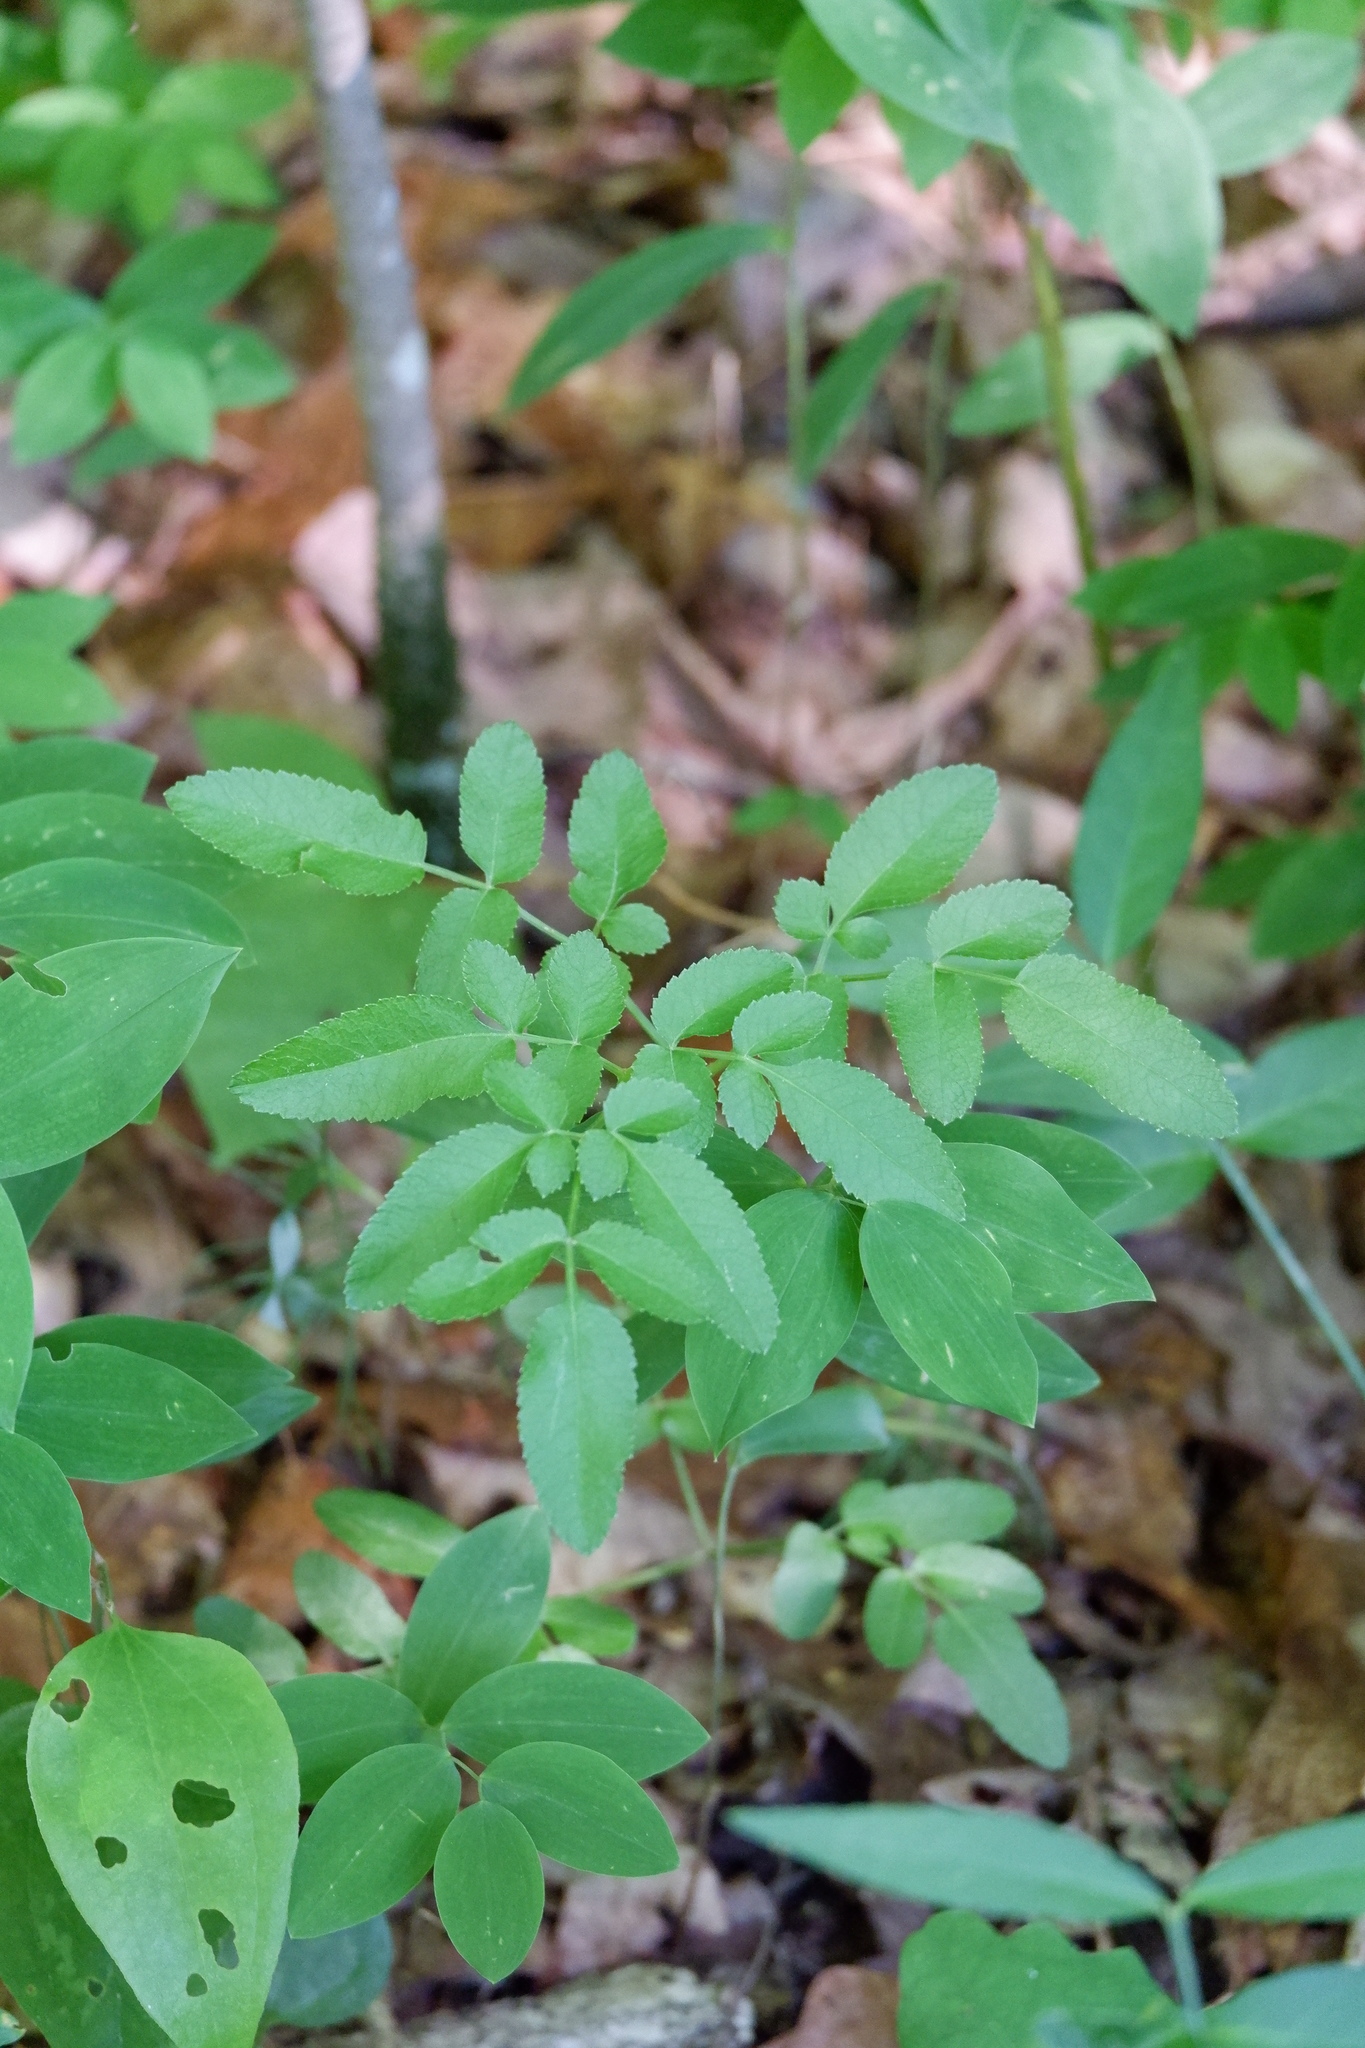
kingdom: Plantae
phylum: Tracheophyta
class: Magnoliopsida
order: Apiales
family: Apiaceae
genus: Angelica
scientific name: Angelica venenosa
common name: Hairy angelica
